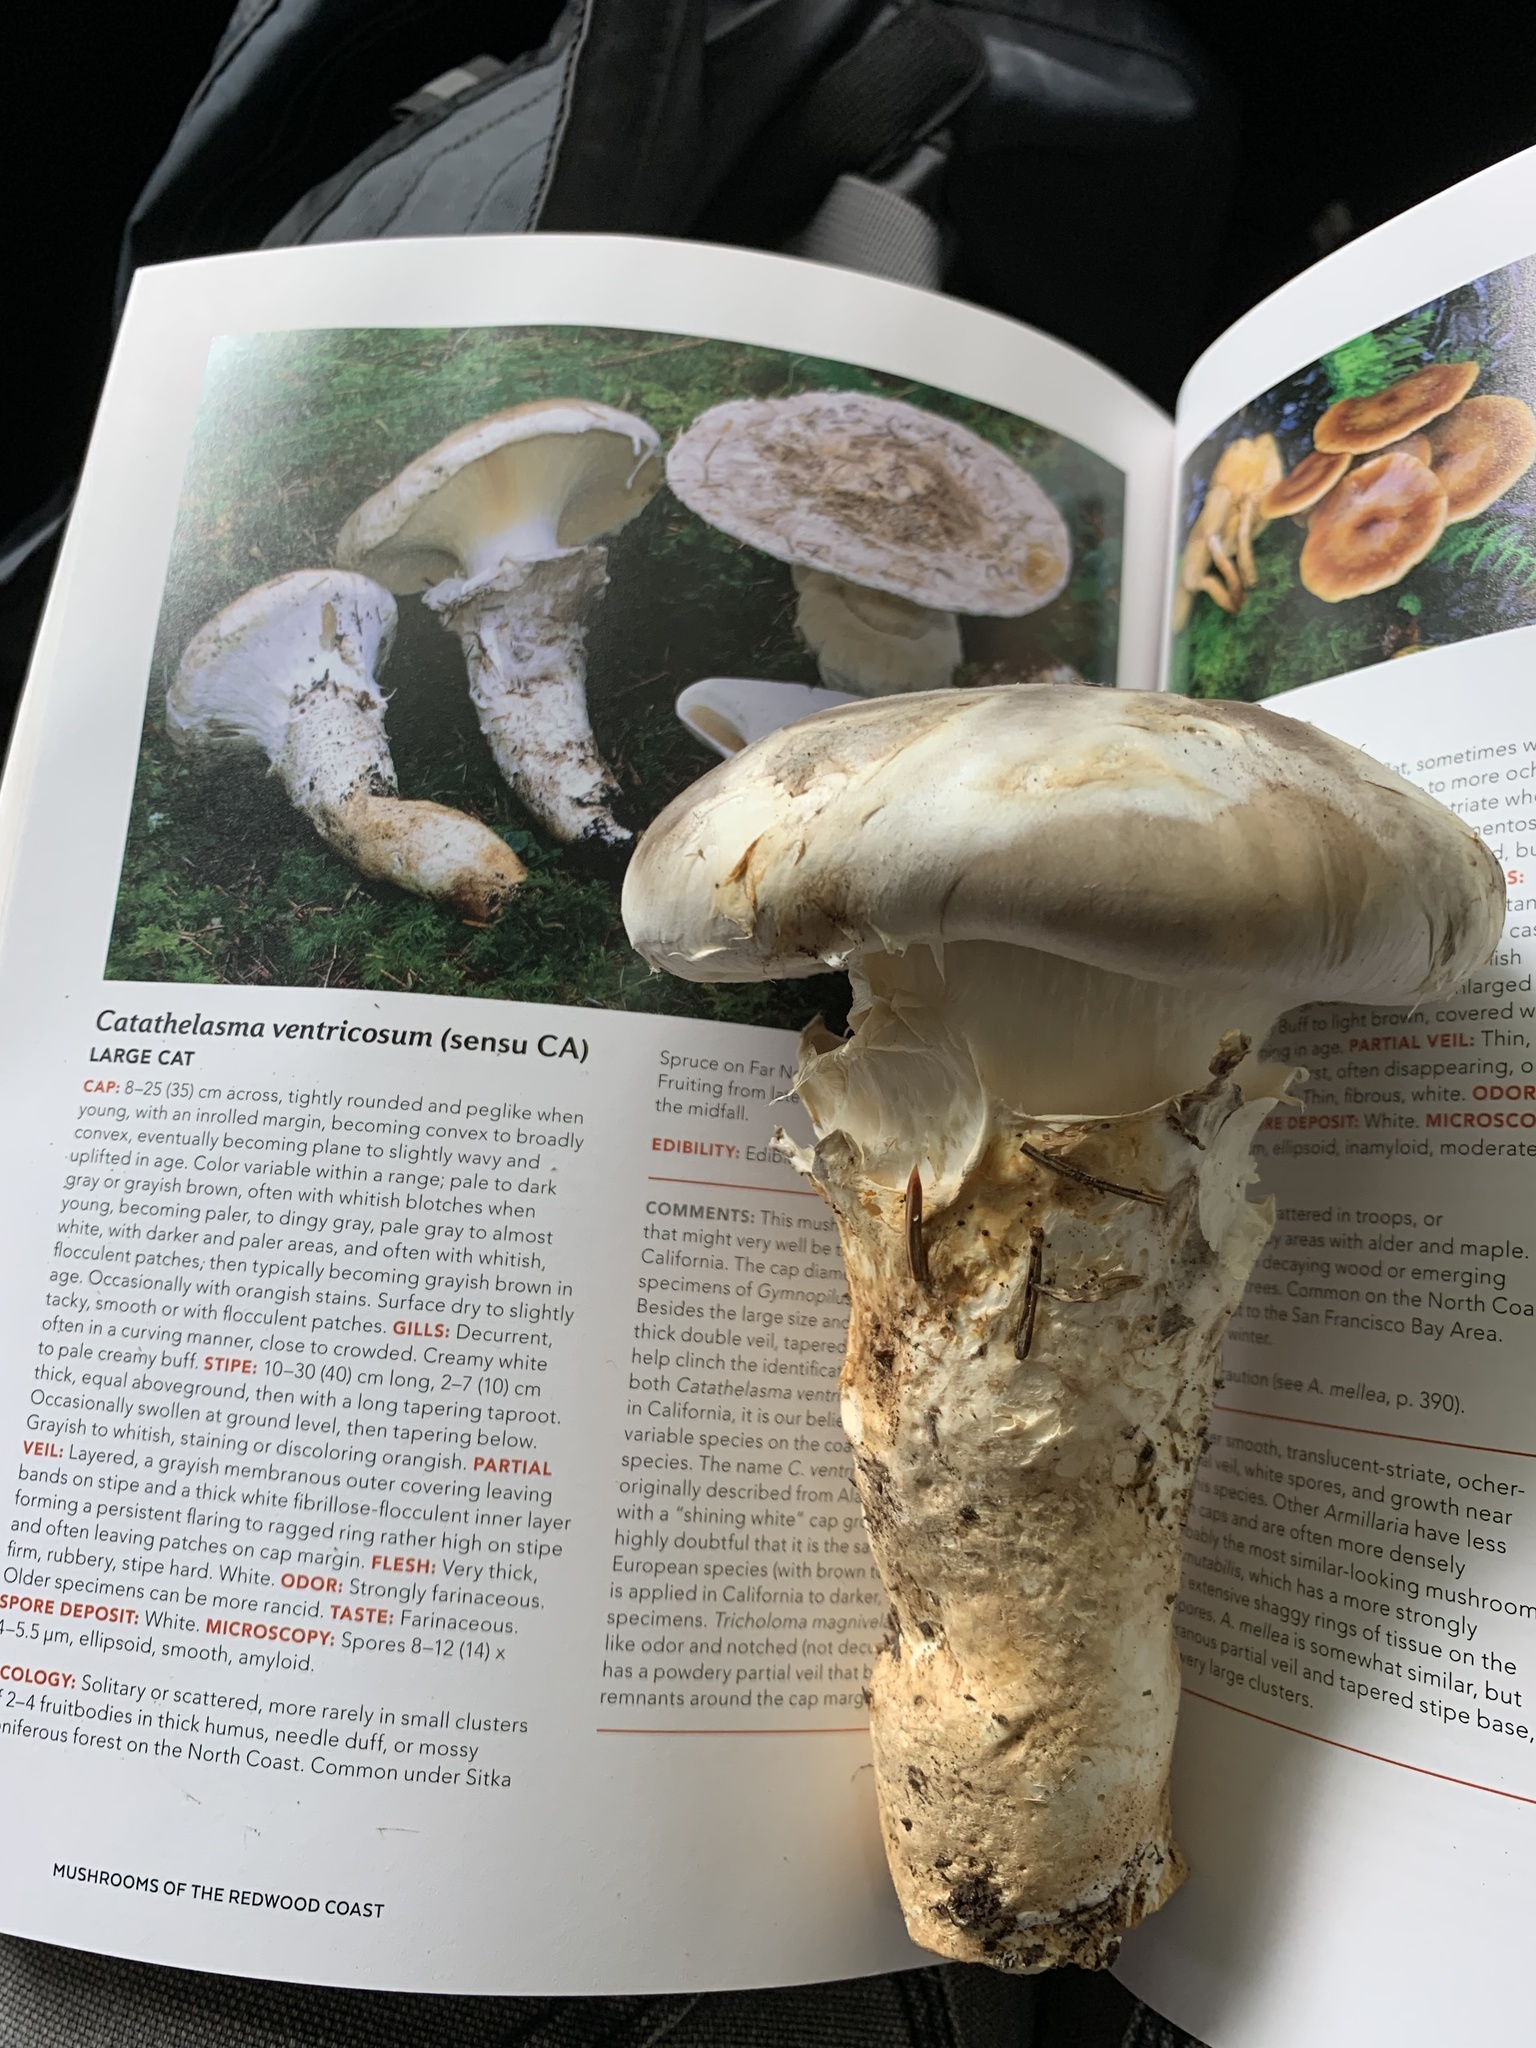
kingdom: Fungi
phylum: Basidiomycota
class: Agaricomycetes
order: Agaricales
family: Biannulariaceae
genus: Catathelasma
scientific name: Catathelasma ventricosum
